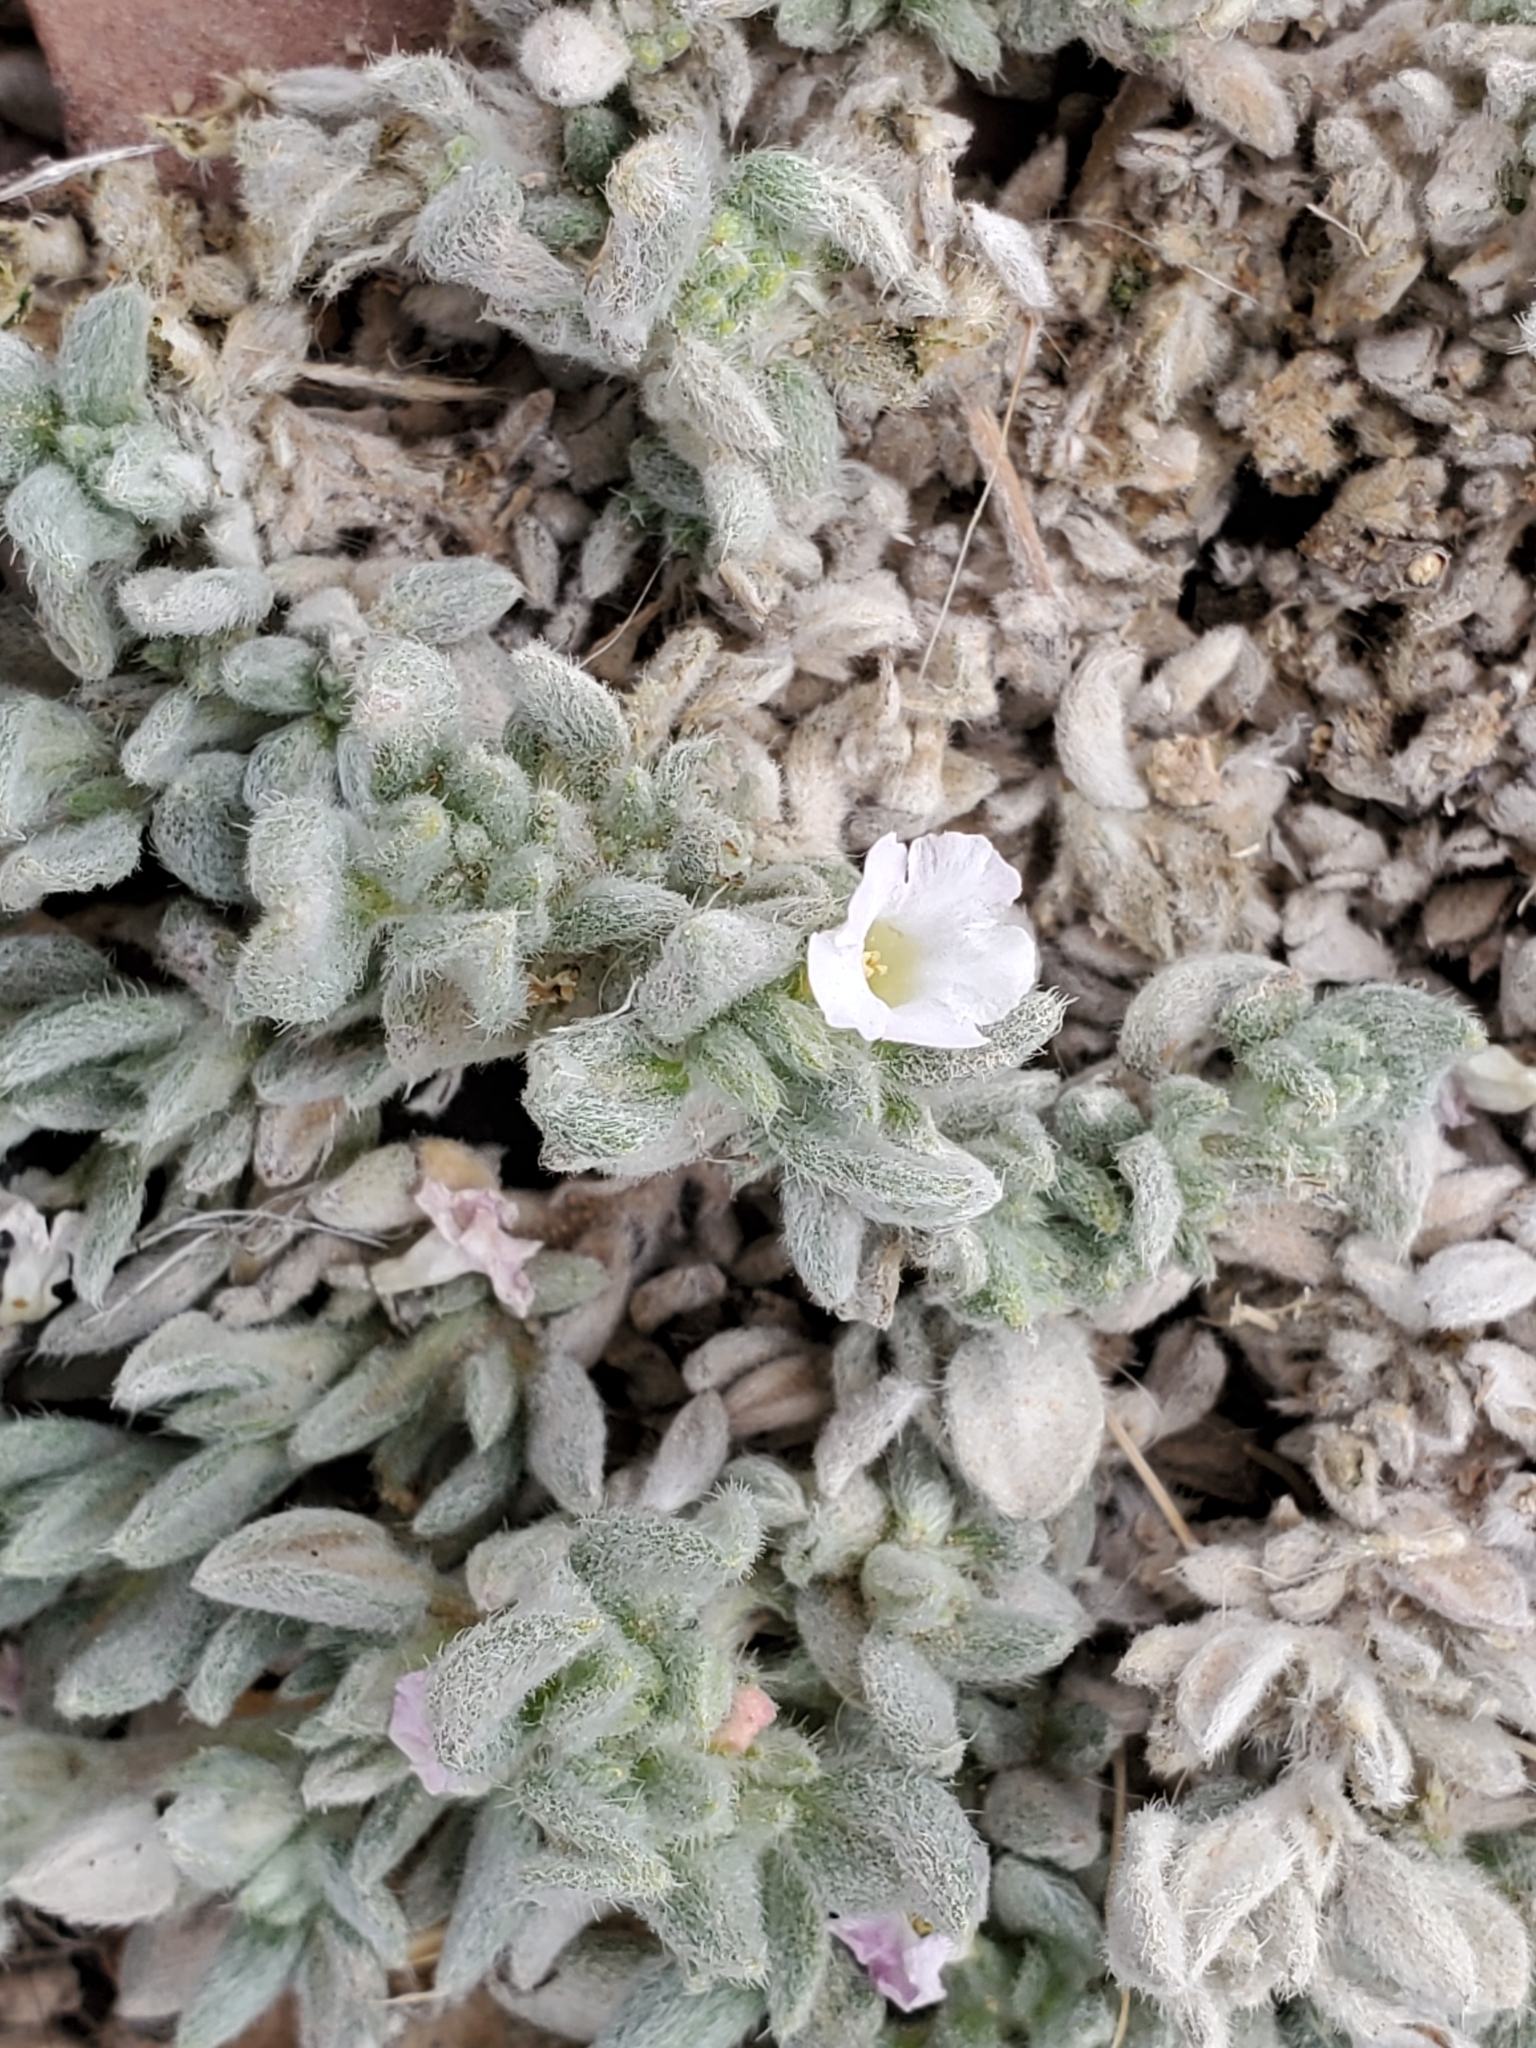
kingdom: Plantae
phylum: Tracheophyta
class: Magnoliopsida
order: Boraginales
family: Ehretiaceae
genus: Tiquilia
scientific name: Tiquilia canescens
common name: Hairy tiquilia
